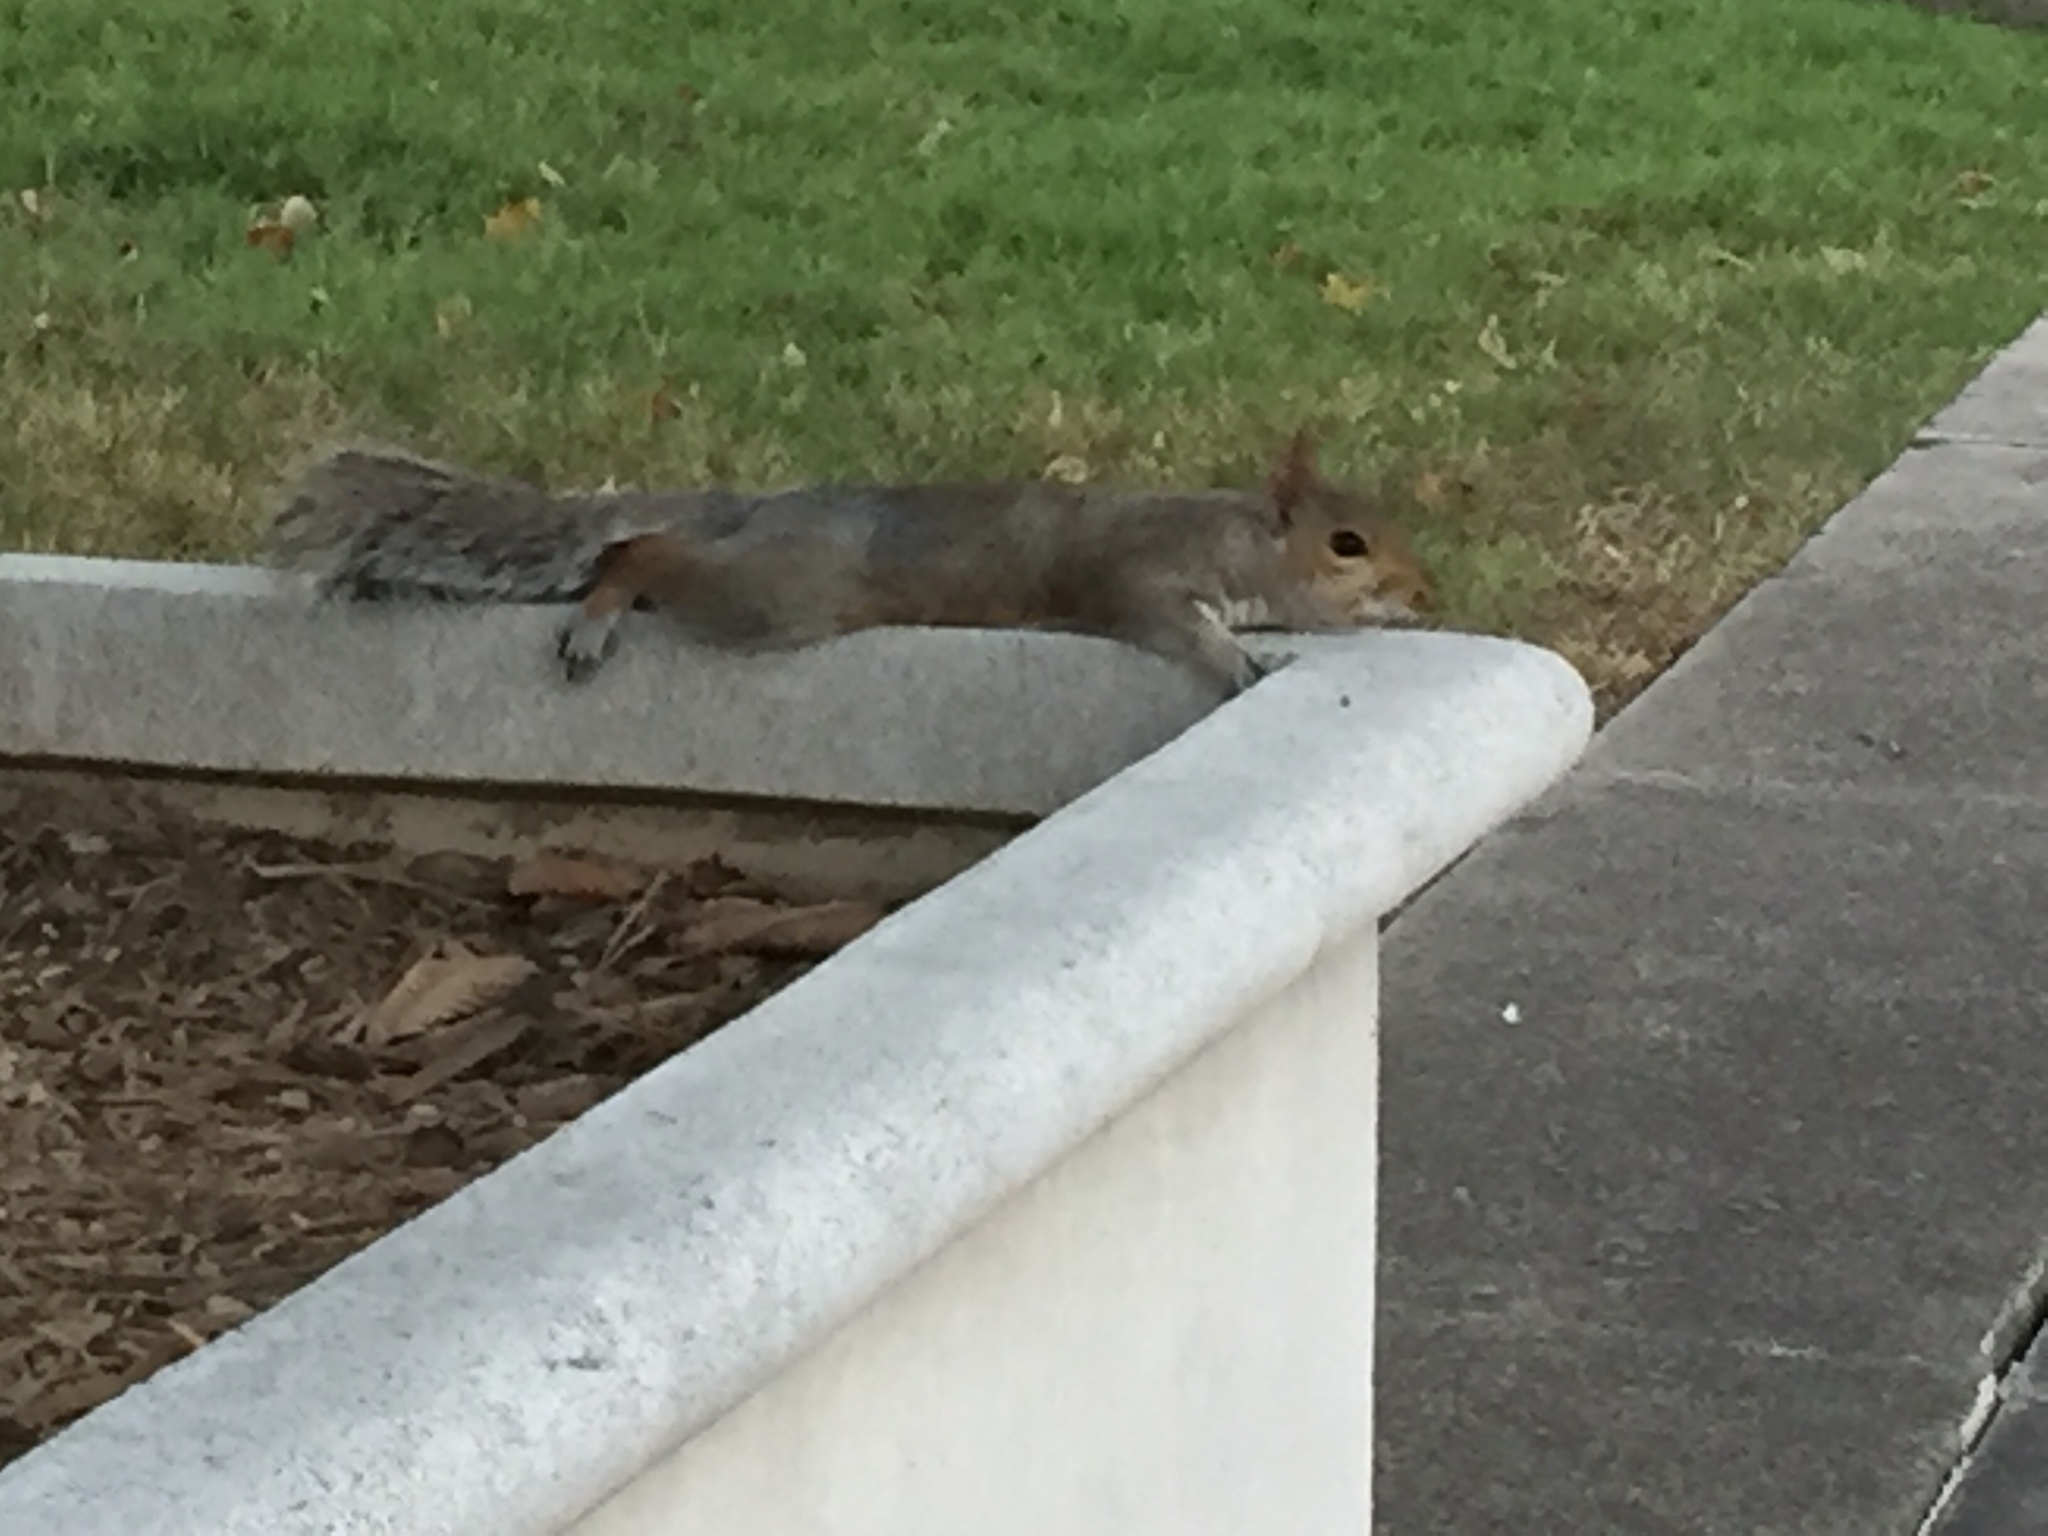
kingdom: Animalia
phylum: Chordata
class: Mammalia
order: Rodentia
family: Sciuridae
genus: Sciurus
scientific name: Sciurus carolinensis
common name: Eastern gray squirrel
